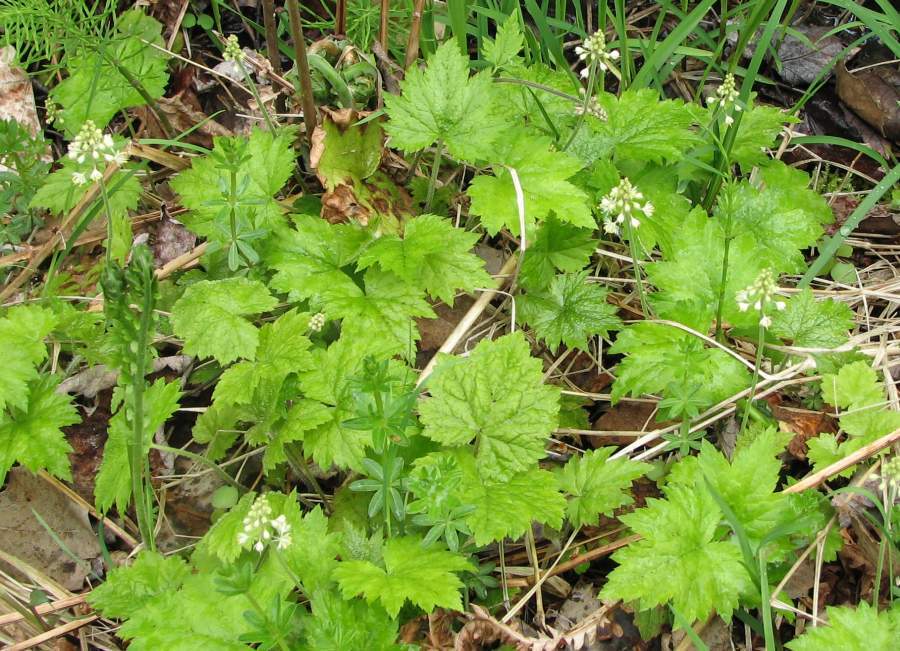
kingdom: Plantae
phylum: Tracheophyta
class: Magnoliopsida
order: Saxifragales
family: Saxifragaceae
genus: Tiarella
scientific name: Tiarella stolonifera
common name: Stoloniferous foamflower
